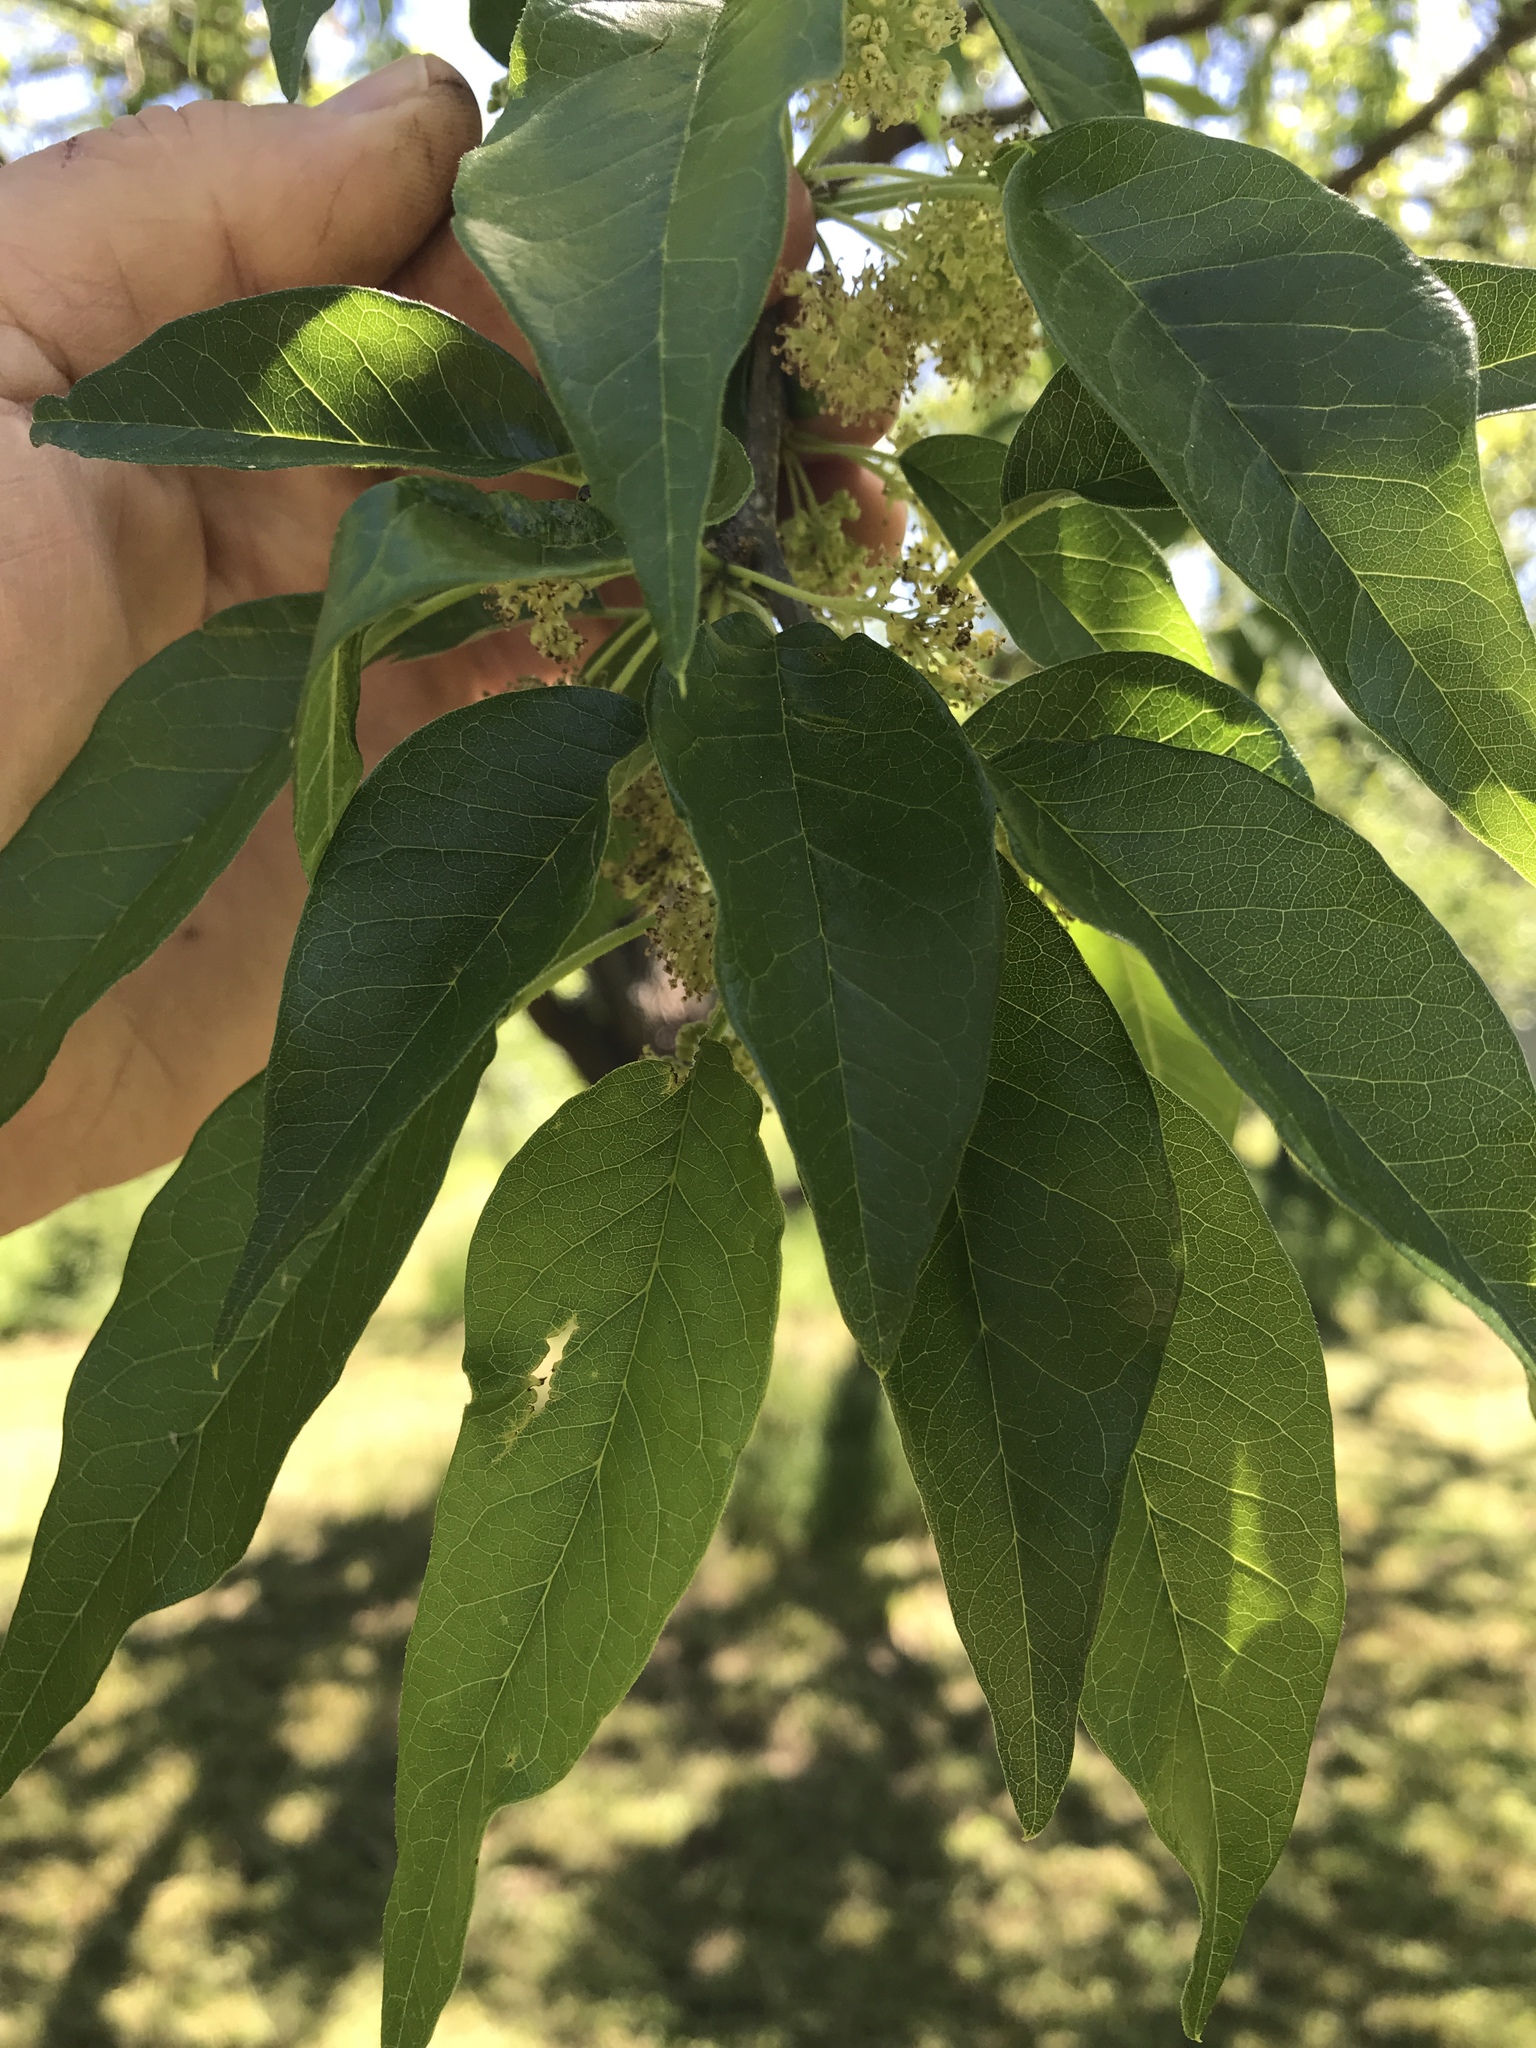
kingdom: Plantae
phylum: Tracheophyta
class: Magnoliopsida
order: Rosales
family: Moraceae
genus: Maclura
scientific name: Maclura pomifera
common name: Osage-orange
